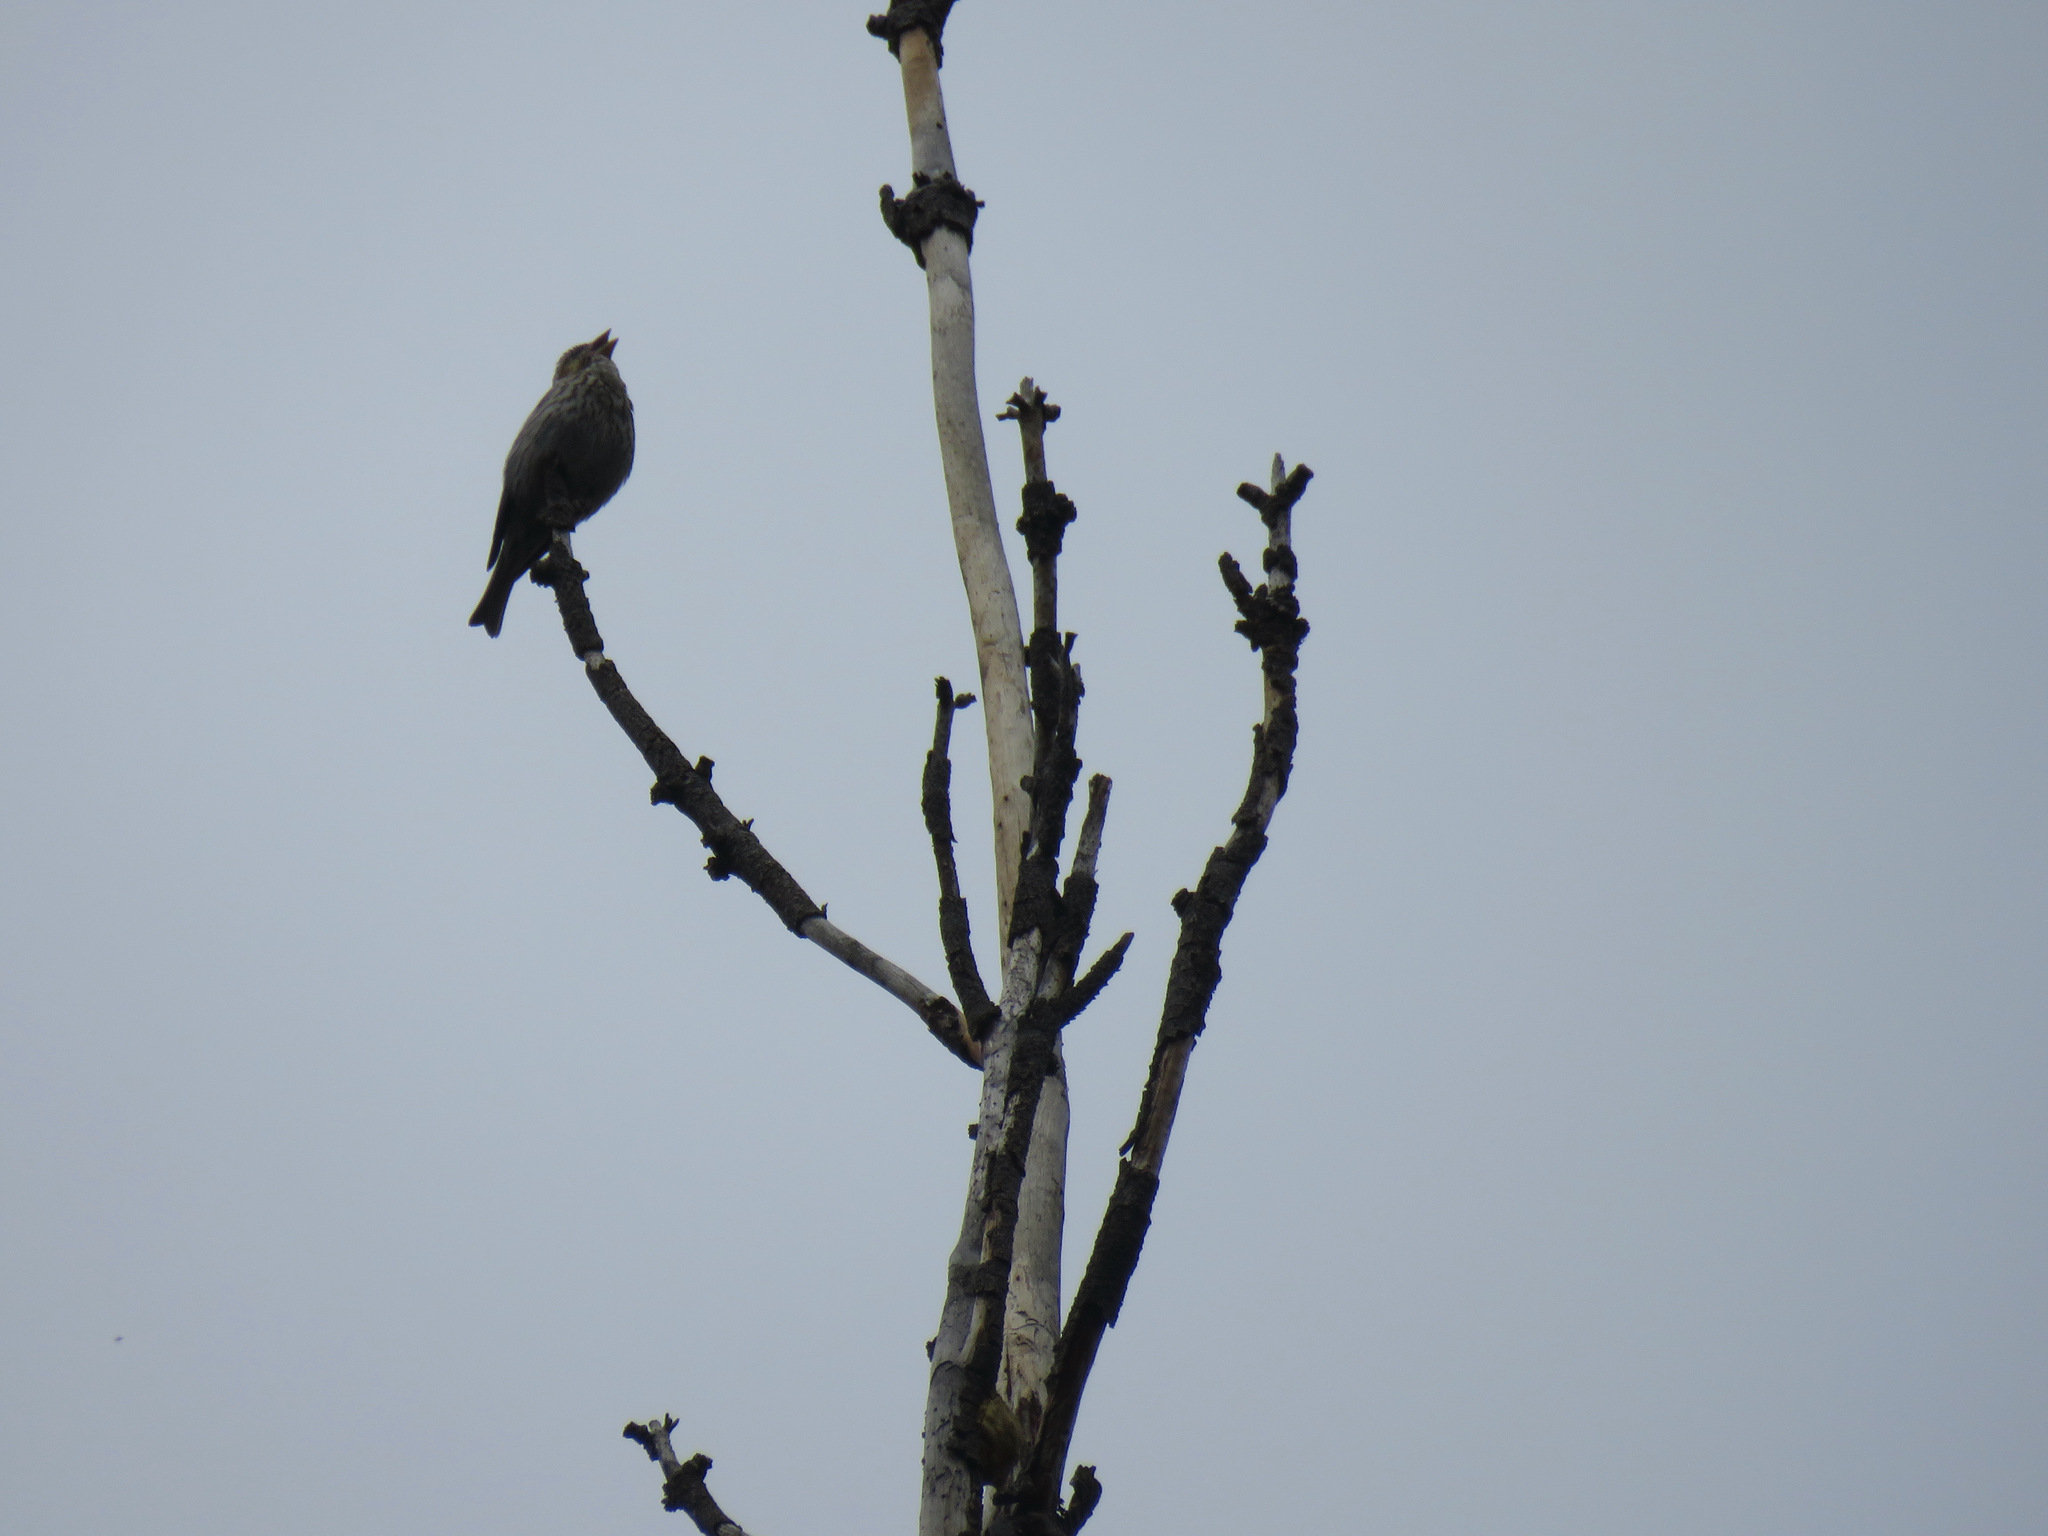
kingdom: Animalia
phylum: Chordata
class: Aves
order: Passeriformes
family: Fringillidae
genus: Haemorhous
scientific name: Haemorhous cassinii
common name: Cassin's finch
